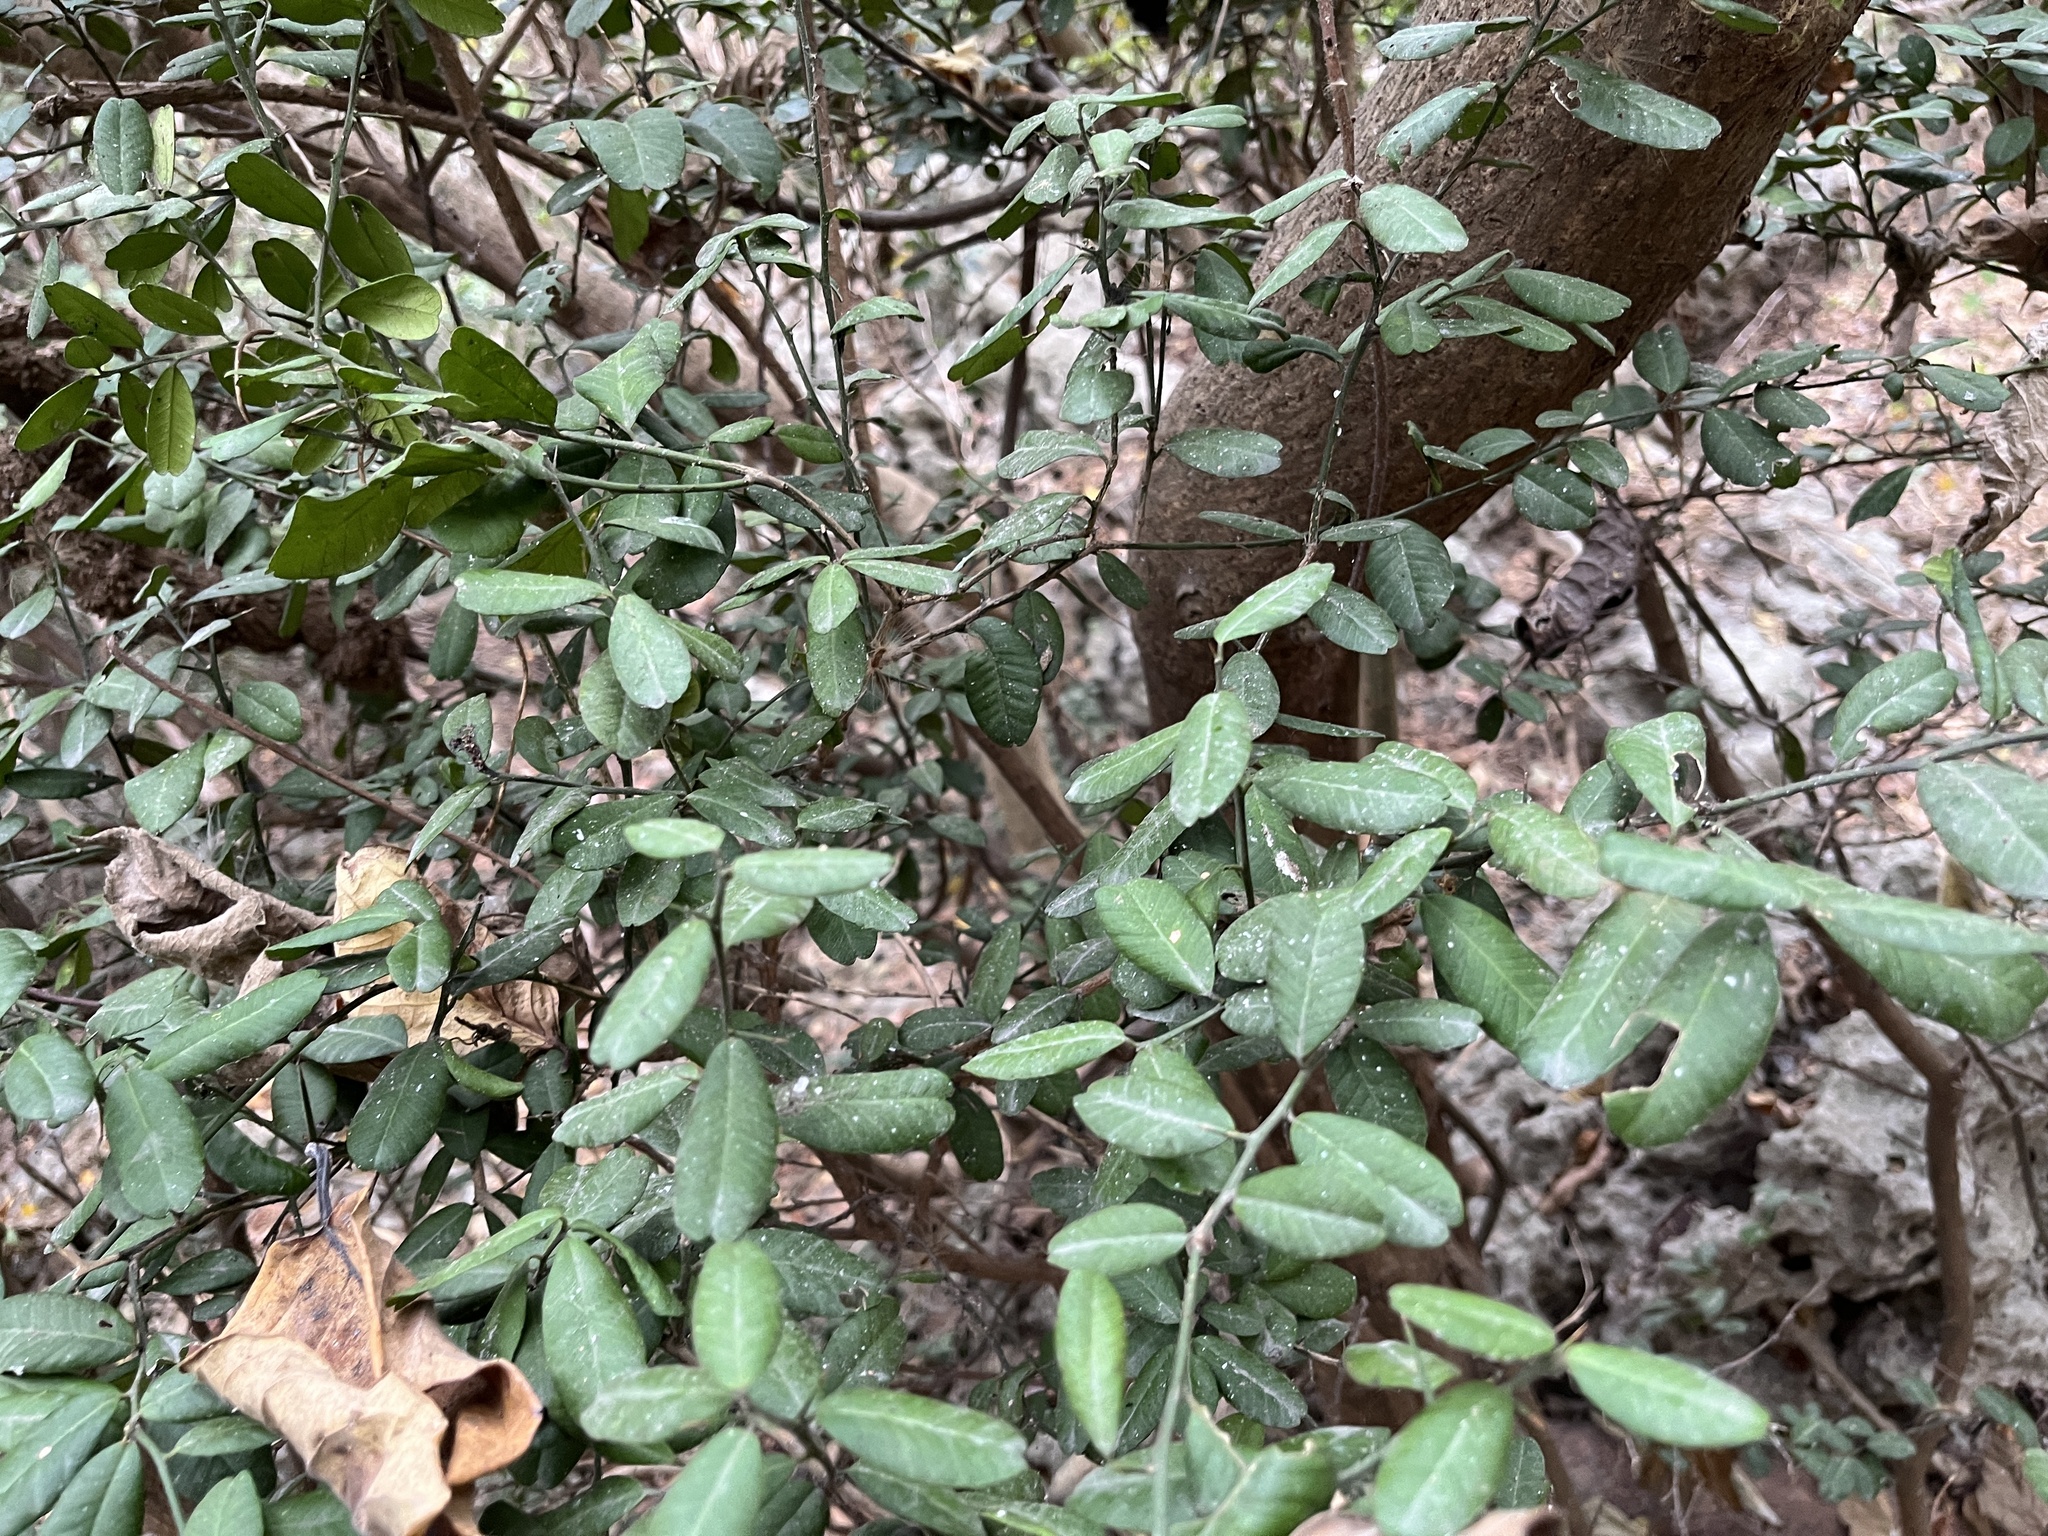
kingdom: Plantae
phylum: Tracheophyta
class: Magnoliopsida
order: Sapindales
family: Rutaceae
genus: Atalantia
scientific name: Atalantia buxifolia
